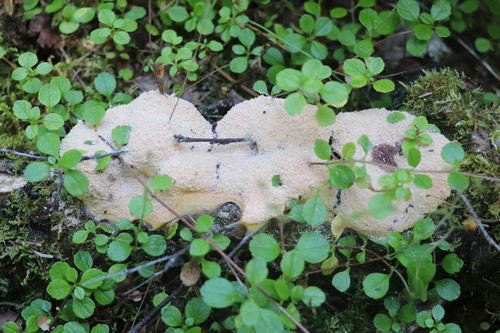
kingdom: Protozoa
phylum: Mycetozoa
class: Myxomycetes
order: Physarales
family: Physaraceae
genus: Fuligo
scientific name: Fuligo septica
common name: Dog vomit slime mold
